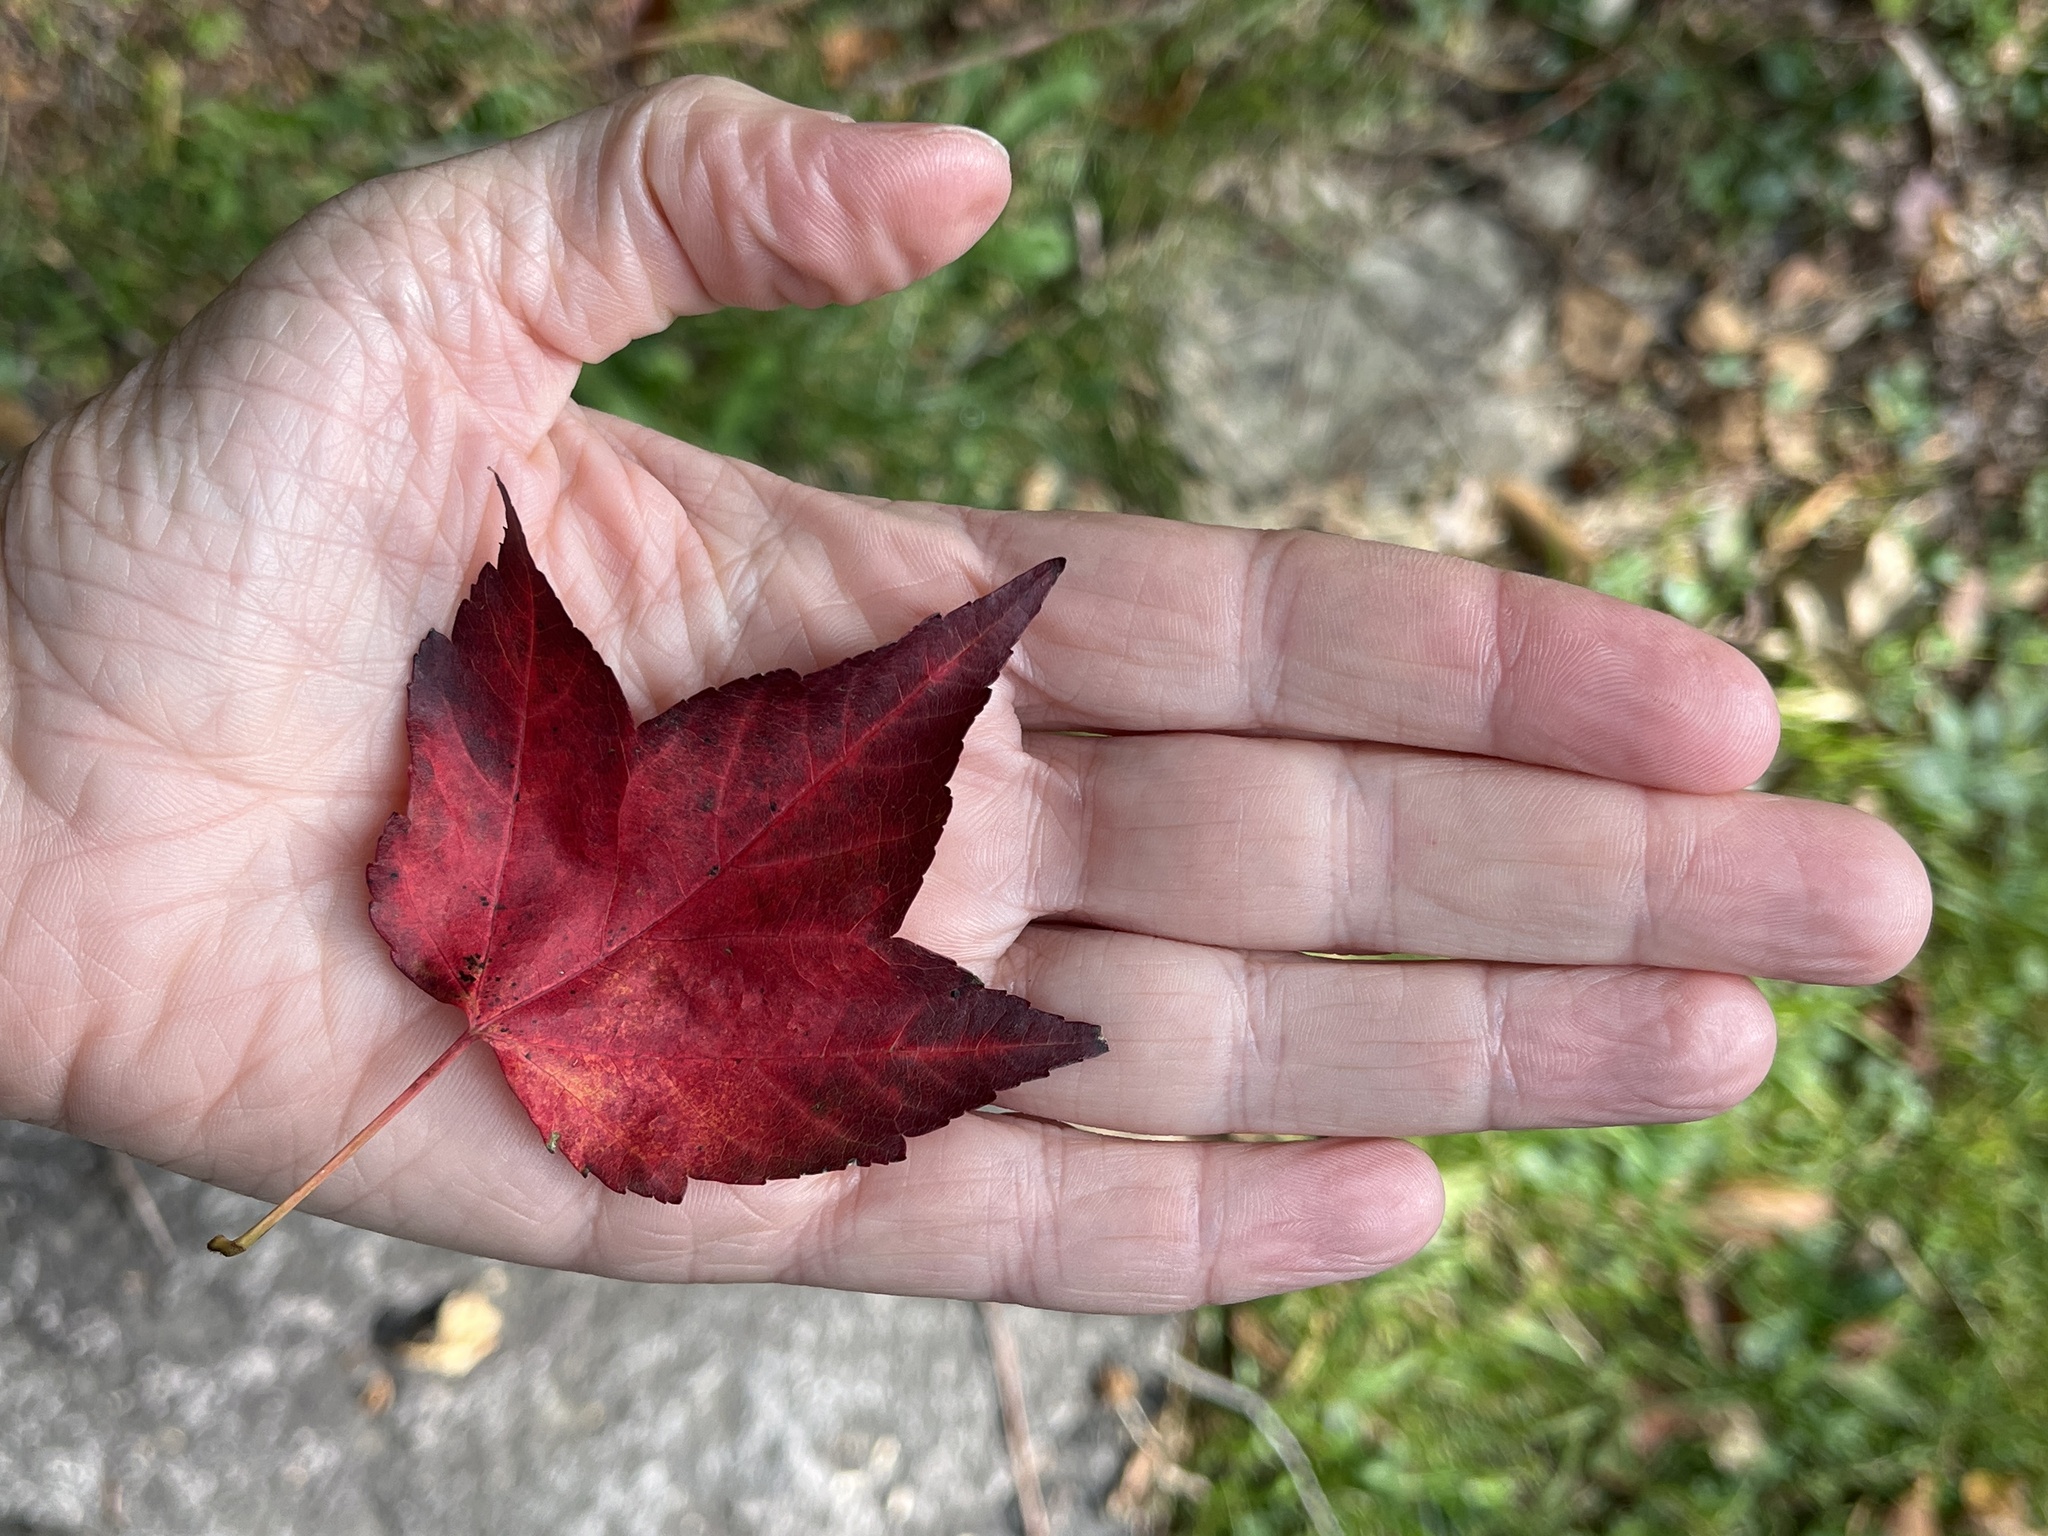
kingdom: Plantae
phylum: Tracheophyta
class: Magnoliopsida
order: Sapindales
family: Sapindaceae
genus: Acer
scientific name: Acer rubrum
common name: Red maple
